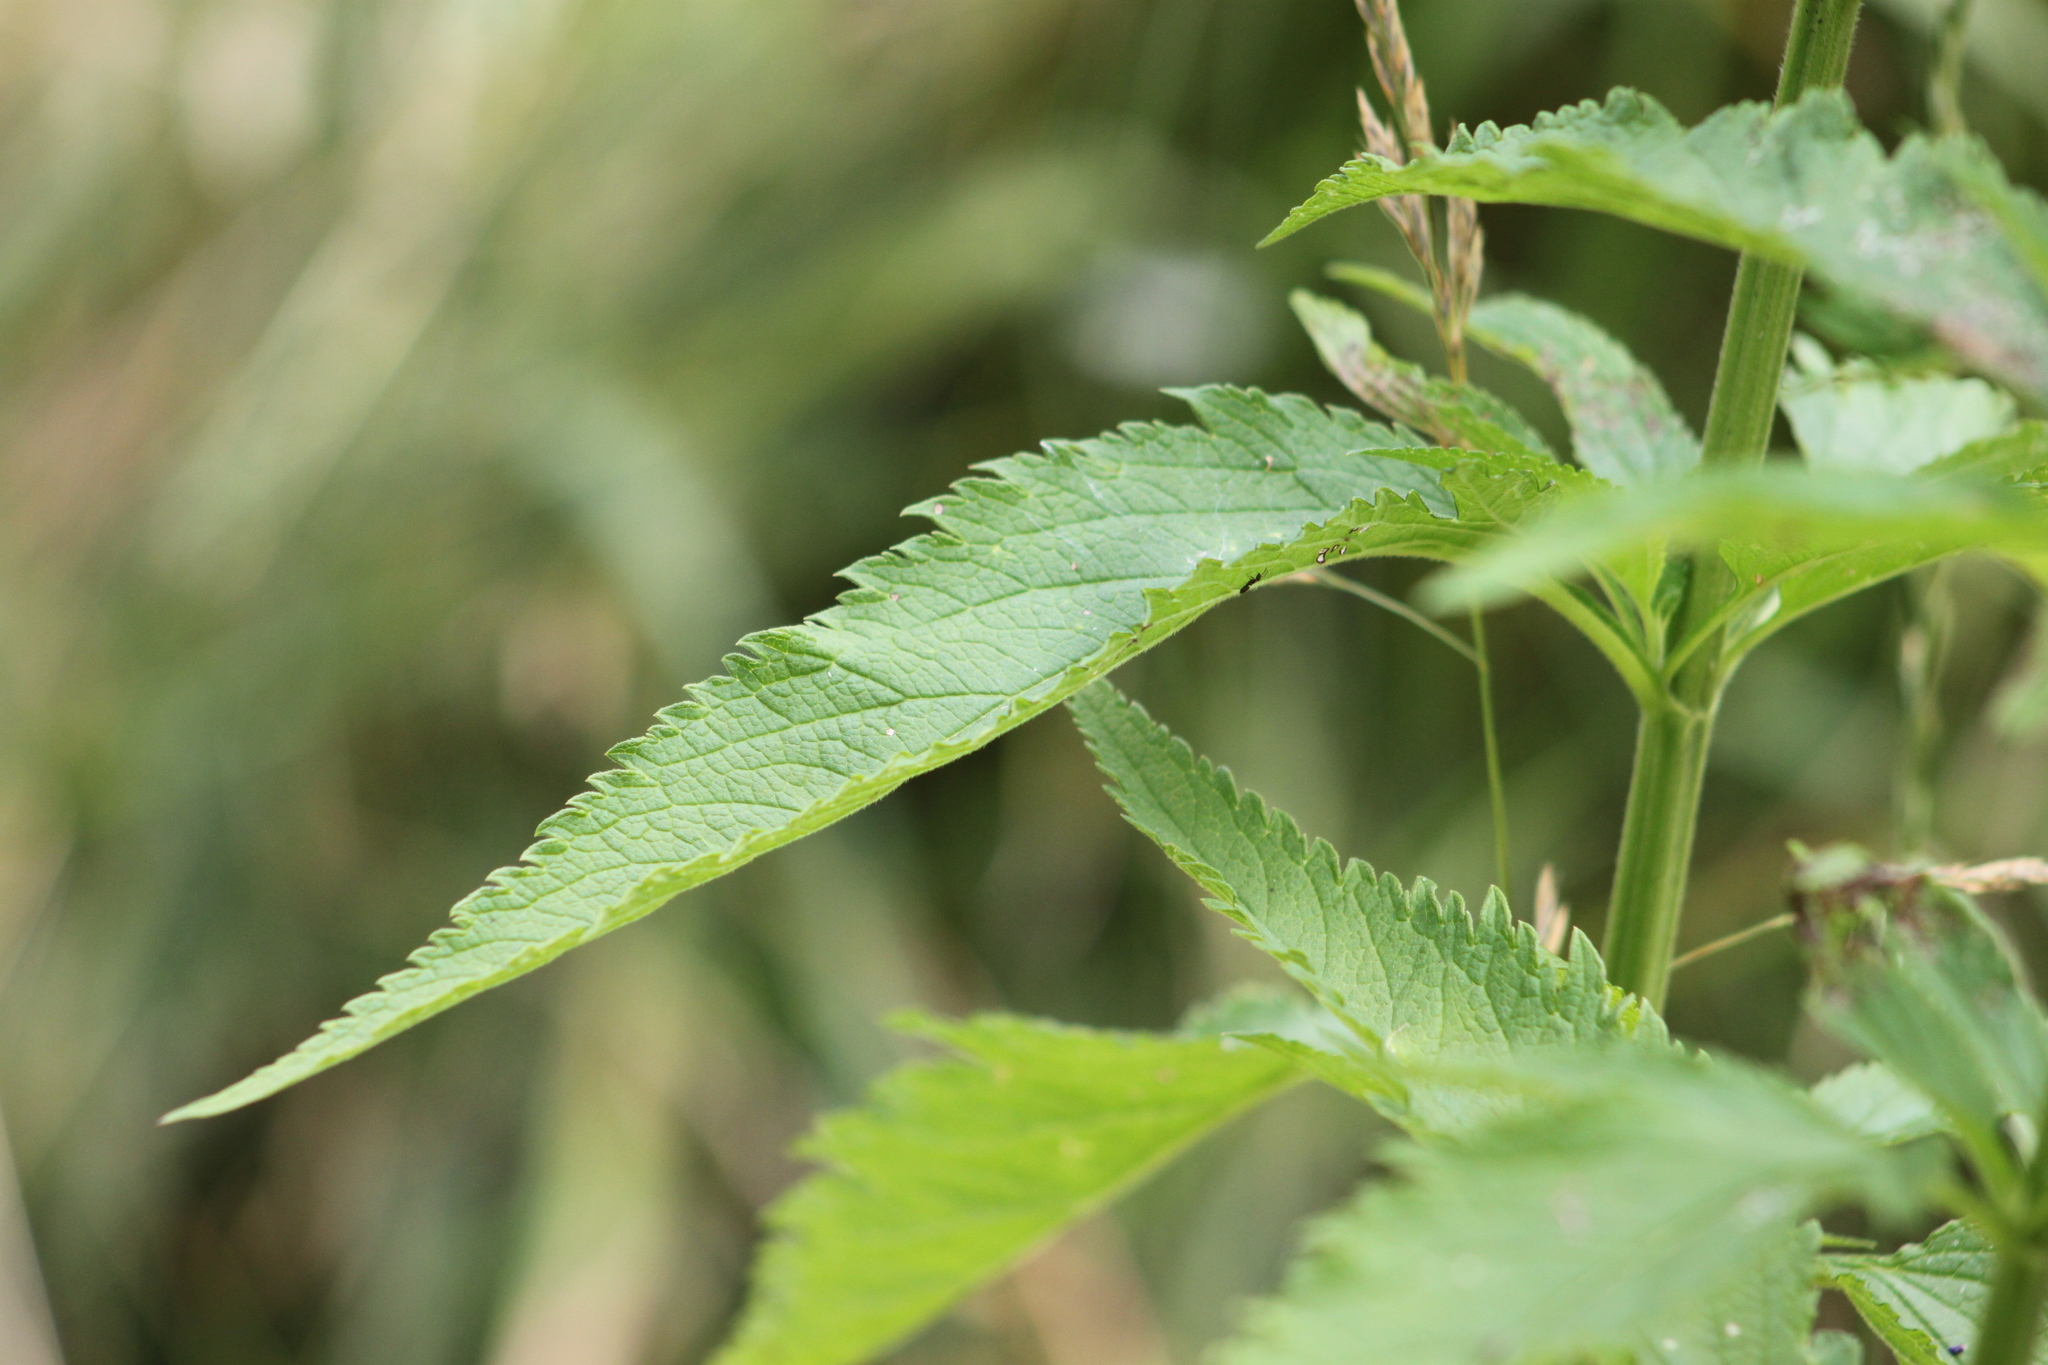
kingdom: Plantae
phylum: Tracheophyta
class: Magnoliopsida
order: Lamiales
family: Verbenaceae
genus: Verbena
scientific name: Verbena hastata
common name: American blue vervain
